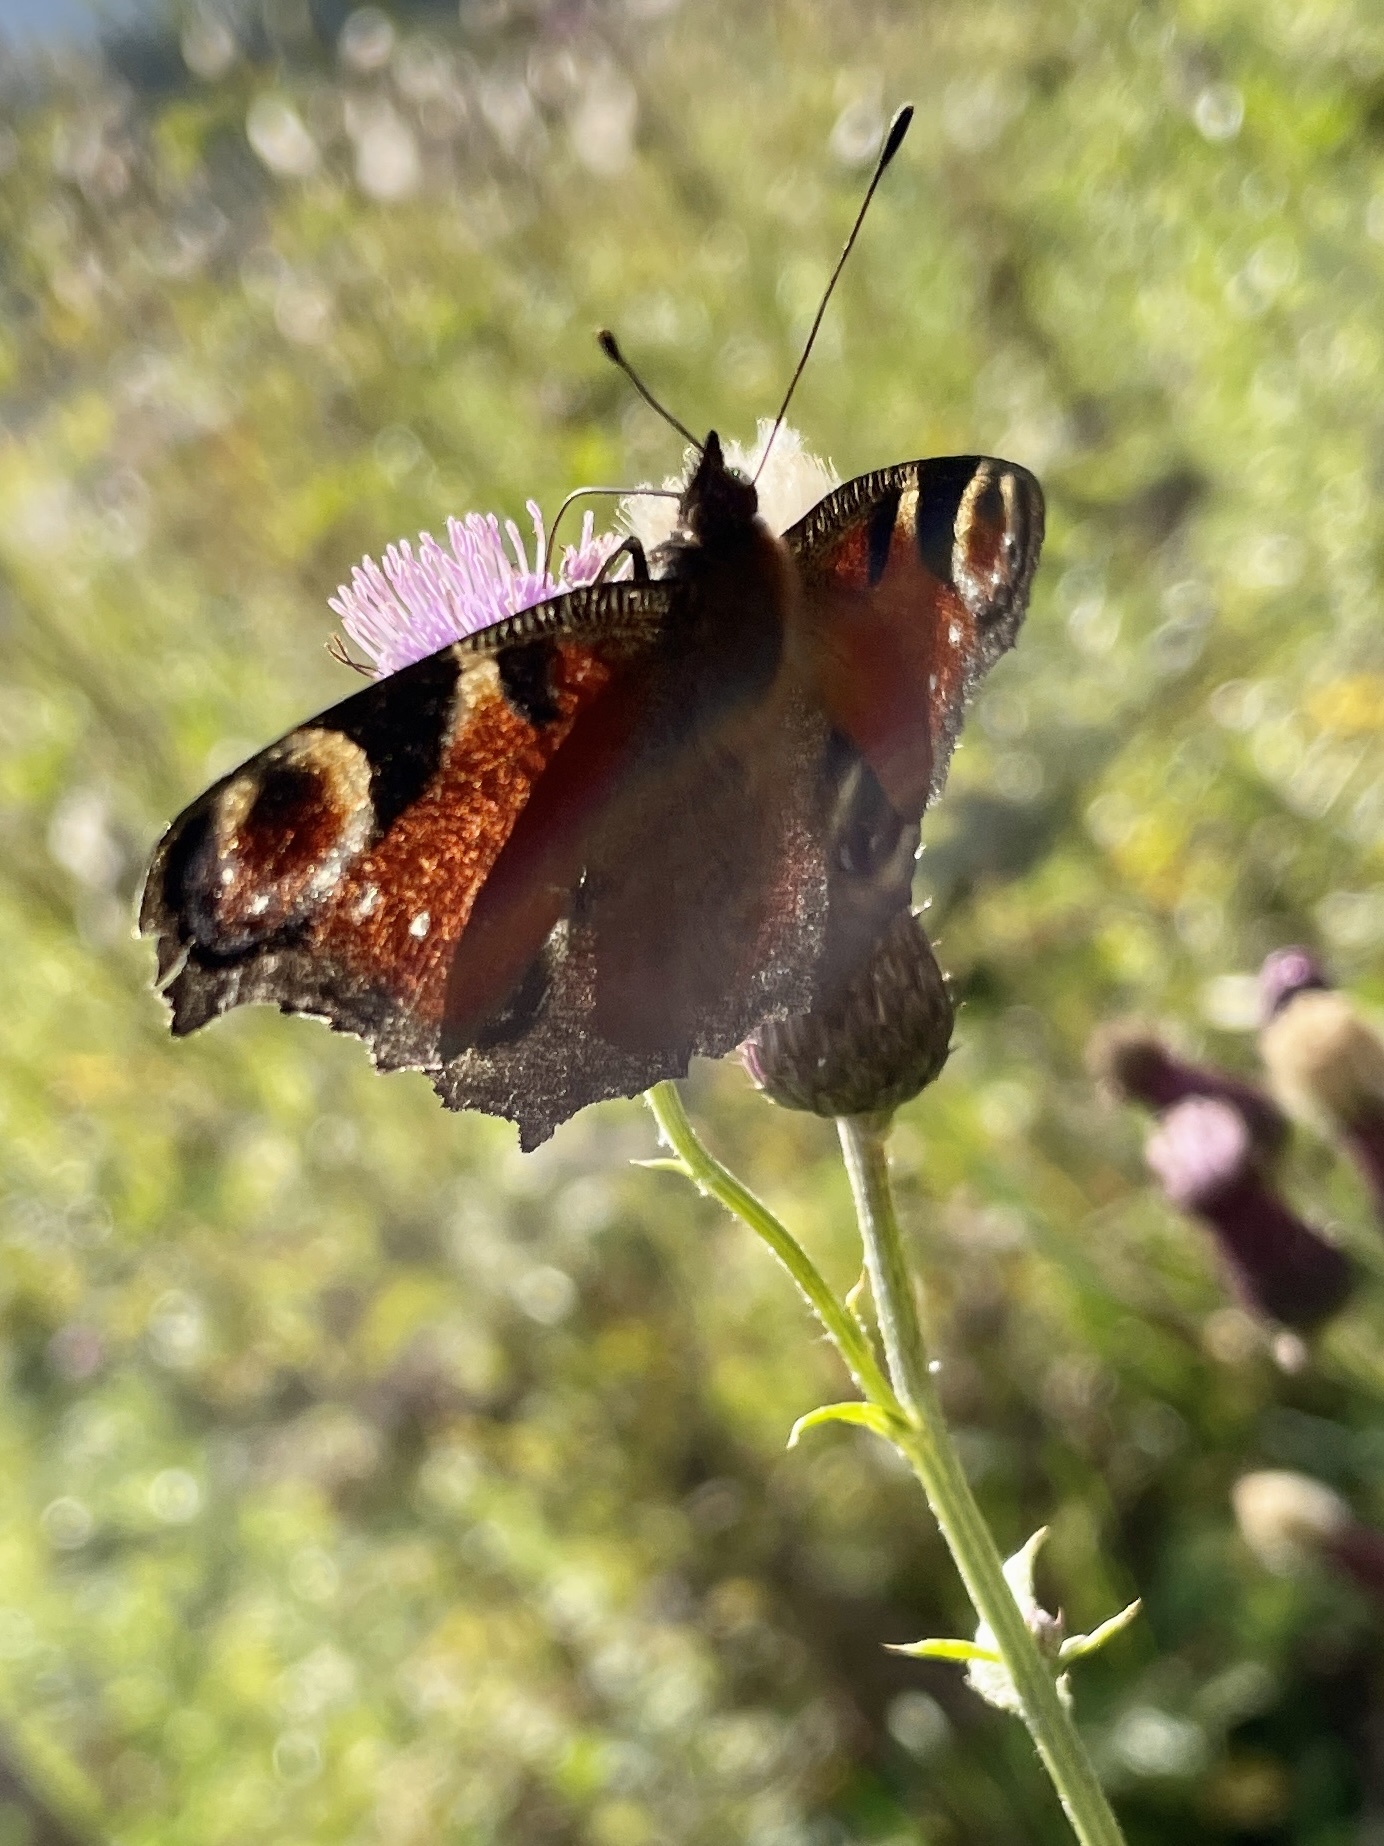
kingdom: Animalia
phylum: Arthropoda
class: Insecta
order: Lepidoptera
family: Nymphalidae
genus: Aglais
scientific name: Aglais io
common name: Peacock
